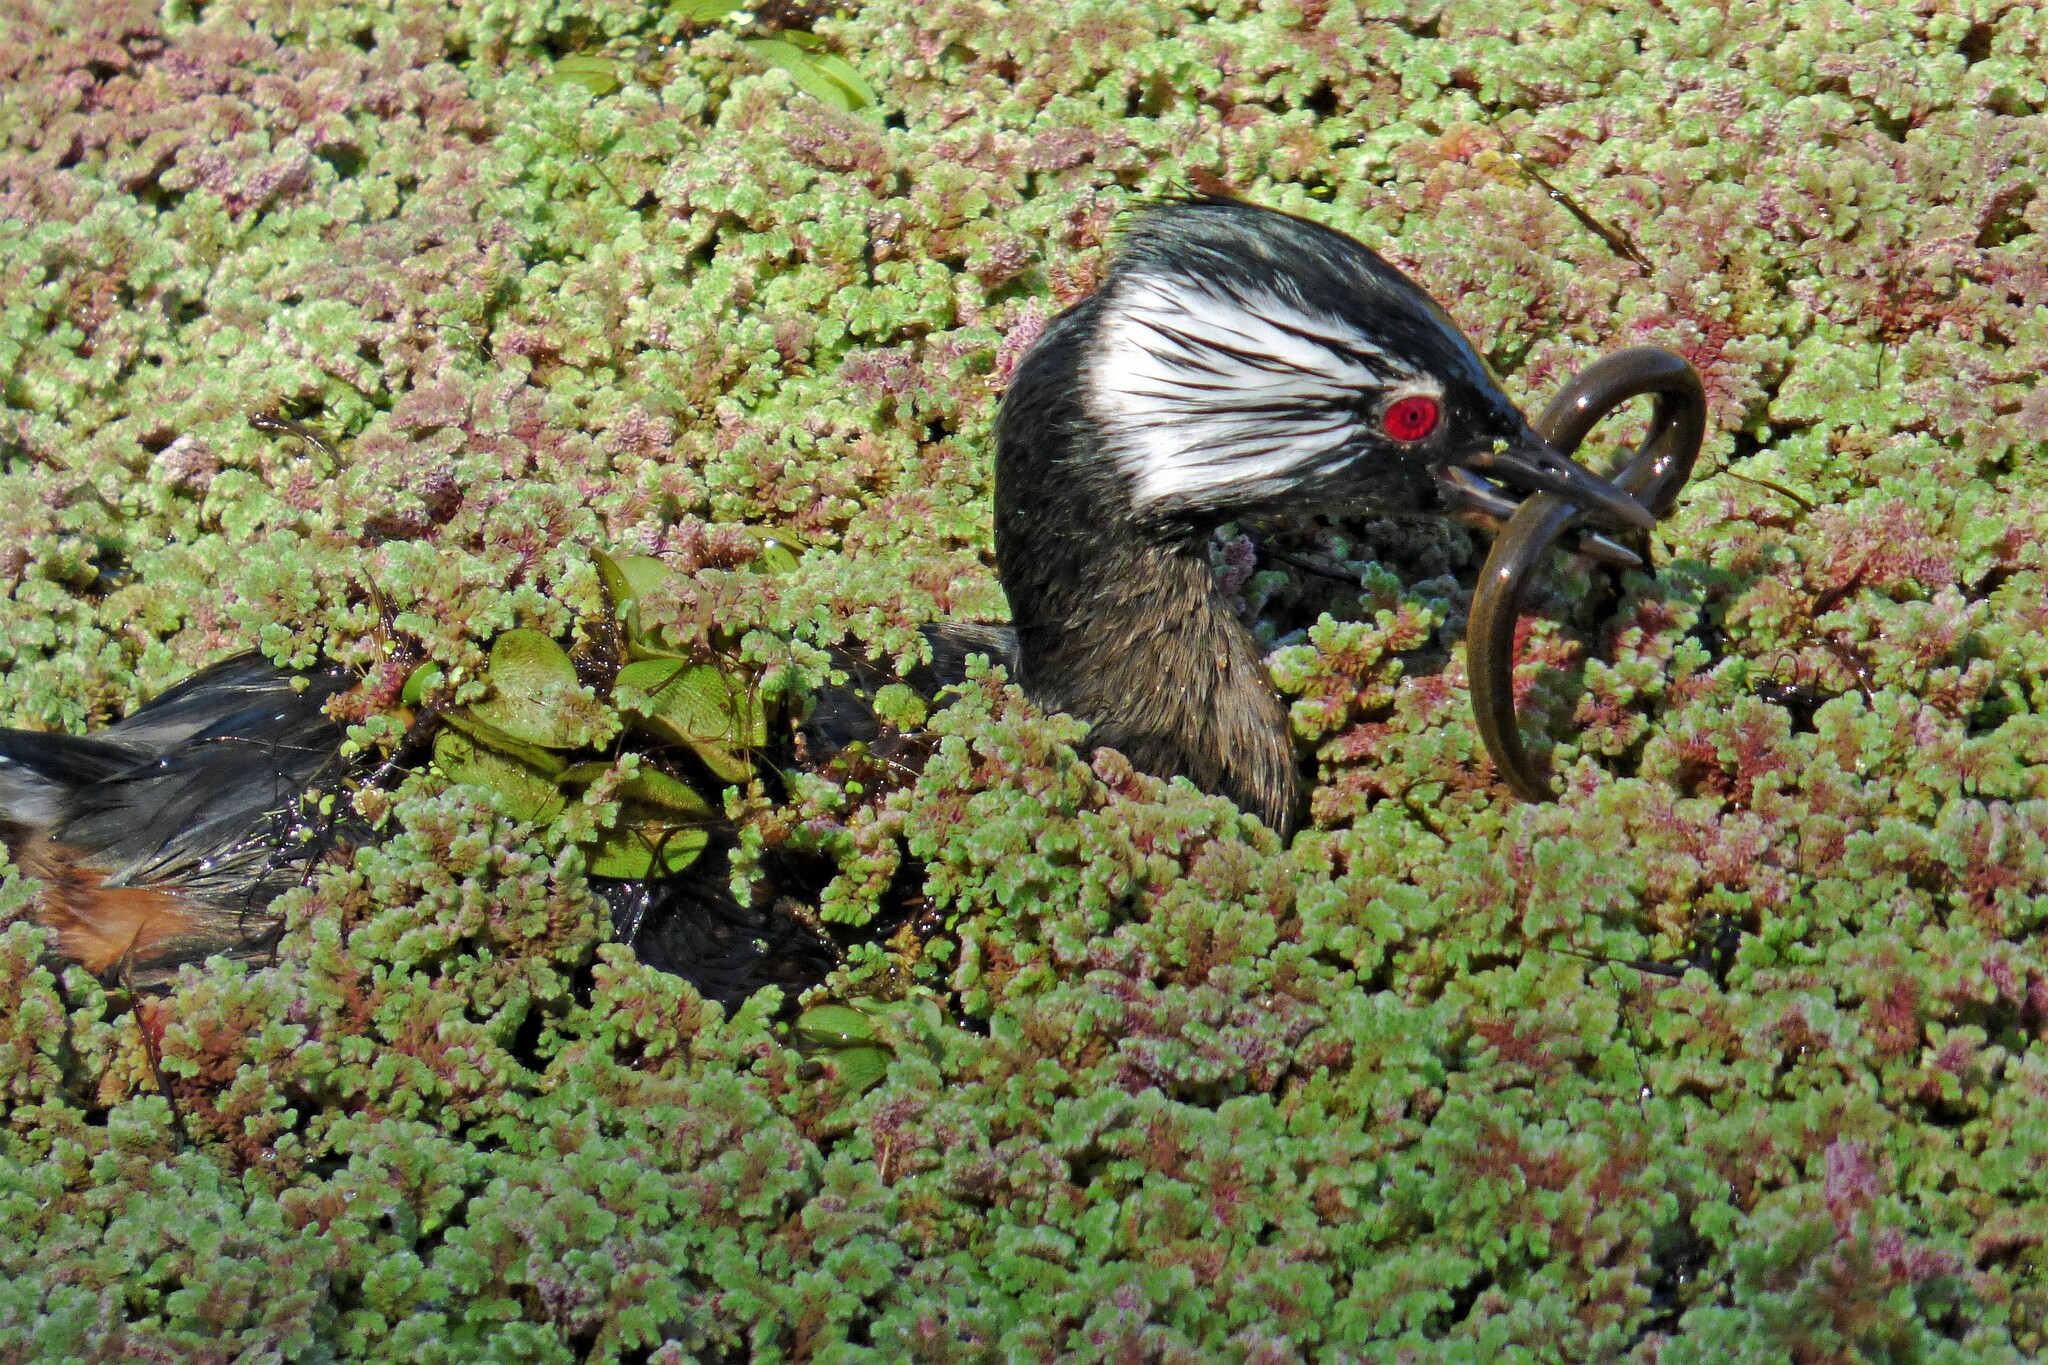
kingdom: Animalia
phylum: Chordata
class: Aves
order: Podicipediformes
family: Podicipedidae
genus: Rollandia
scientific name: Rollandia rolland
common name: White-tufted grebe
